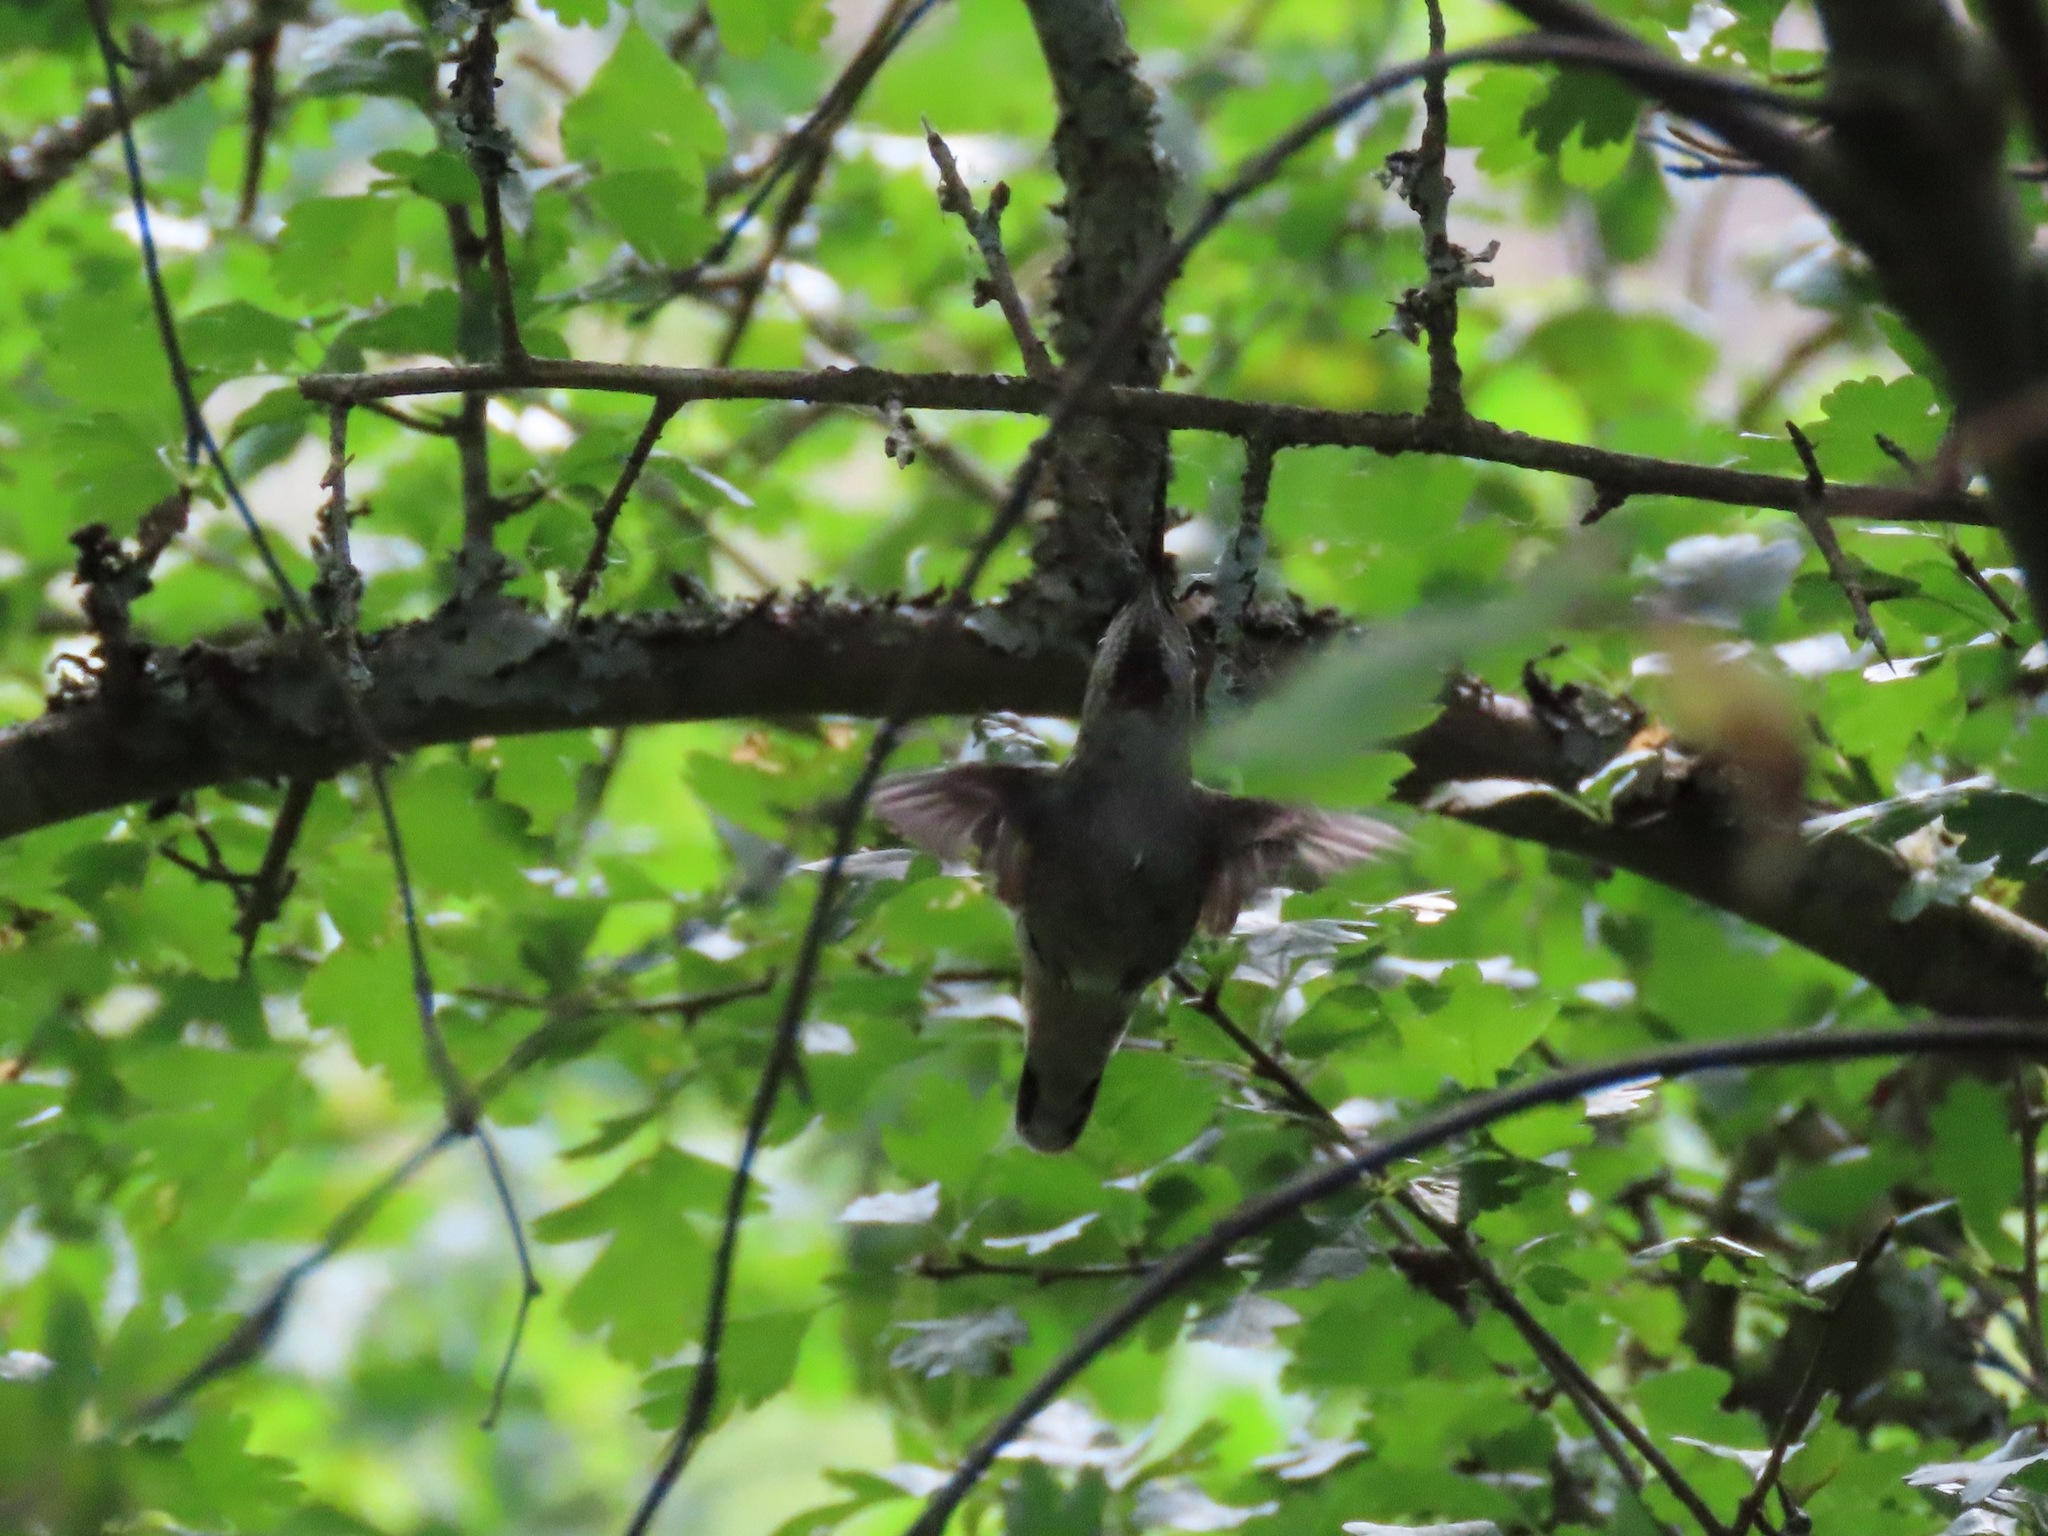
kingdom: Animalia
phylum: Chordata
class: Aves
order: Apodiformes
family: Trochilidae
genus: Calypte
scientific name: Calypte anna
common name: Anna's hummingbird
